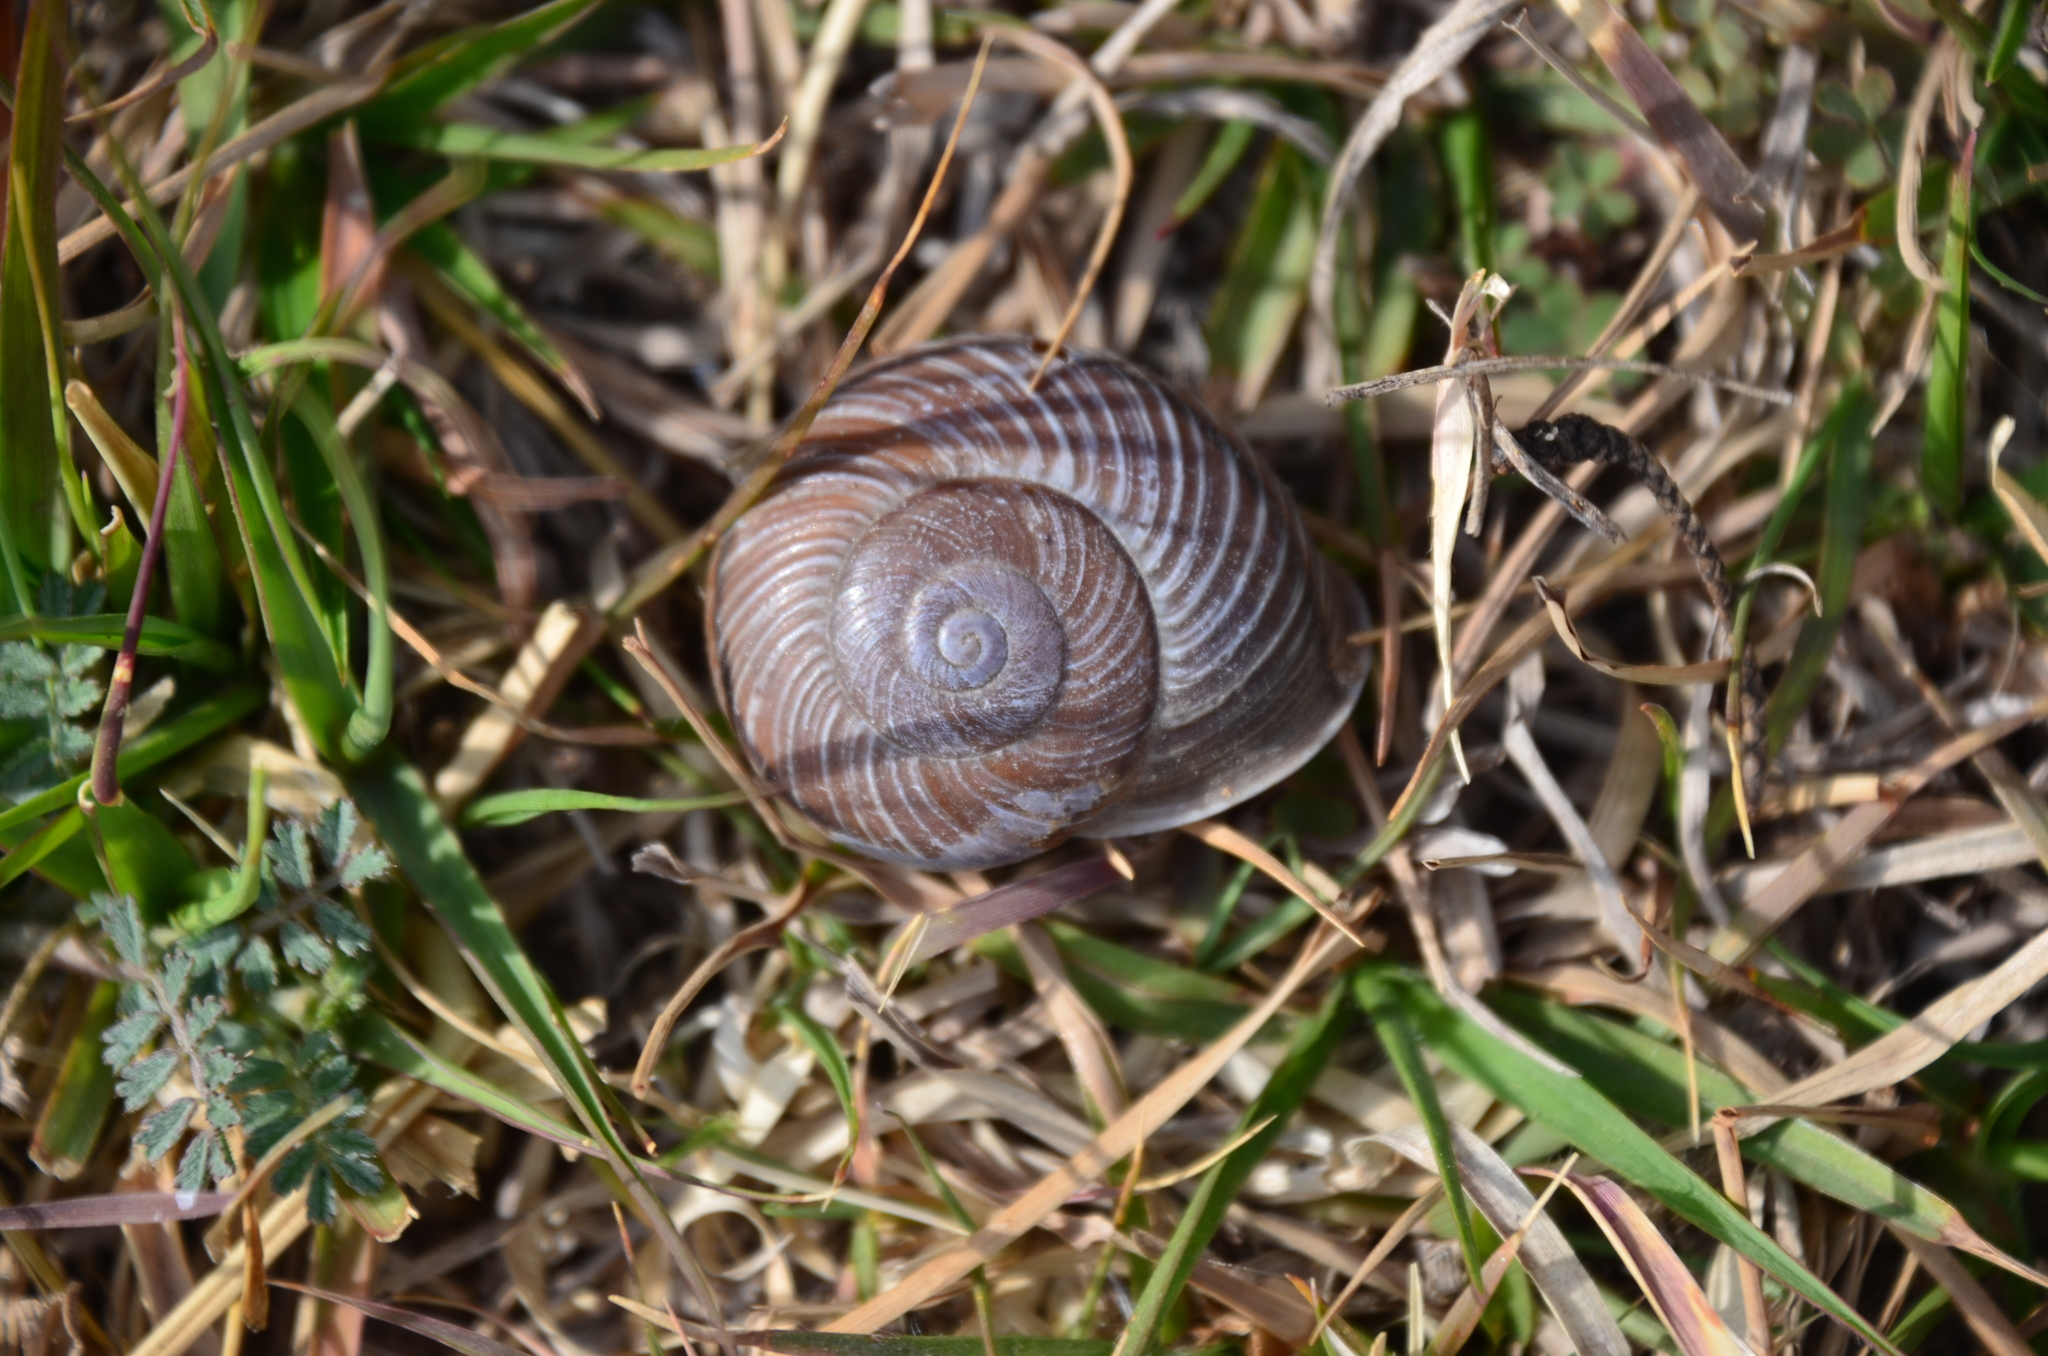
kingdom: Animalia
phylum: Mollusca
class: Gastropoda
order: Stylommatophora
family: Epiphragmophoridae
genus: Epiphragmophora
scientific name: Epiphragmophora puntana
